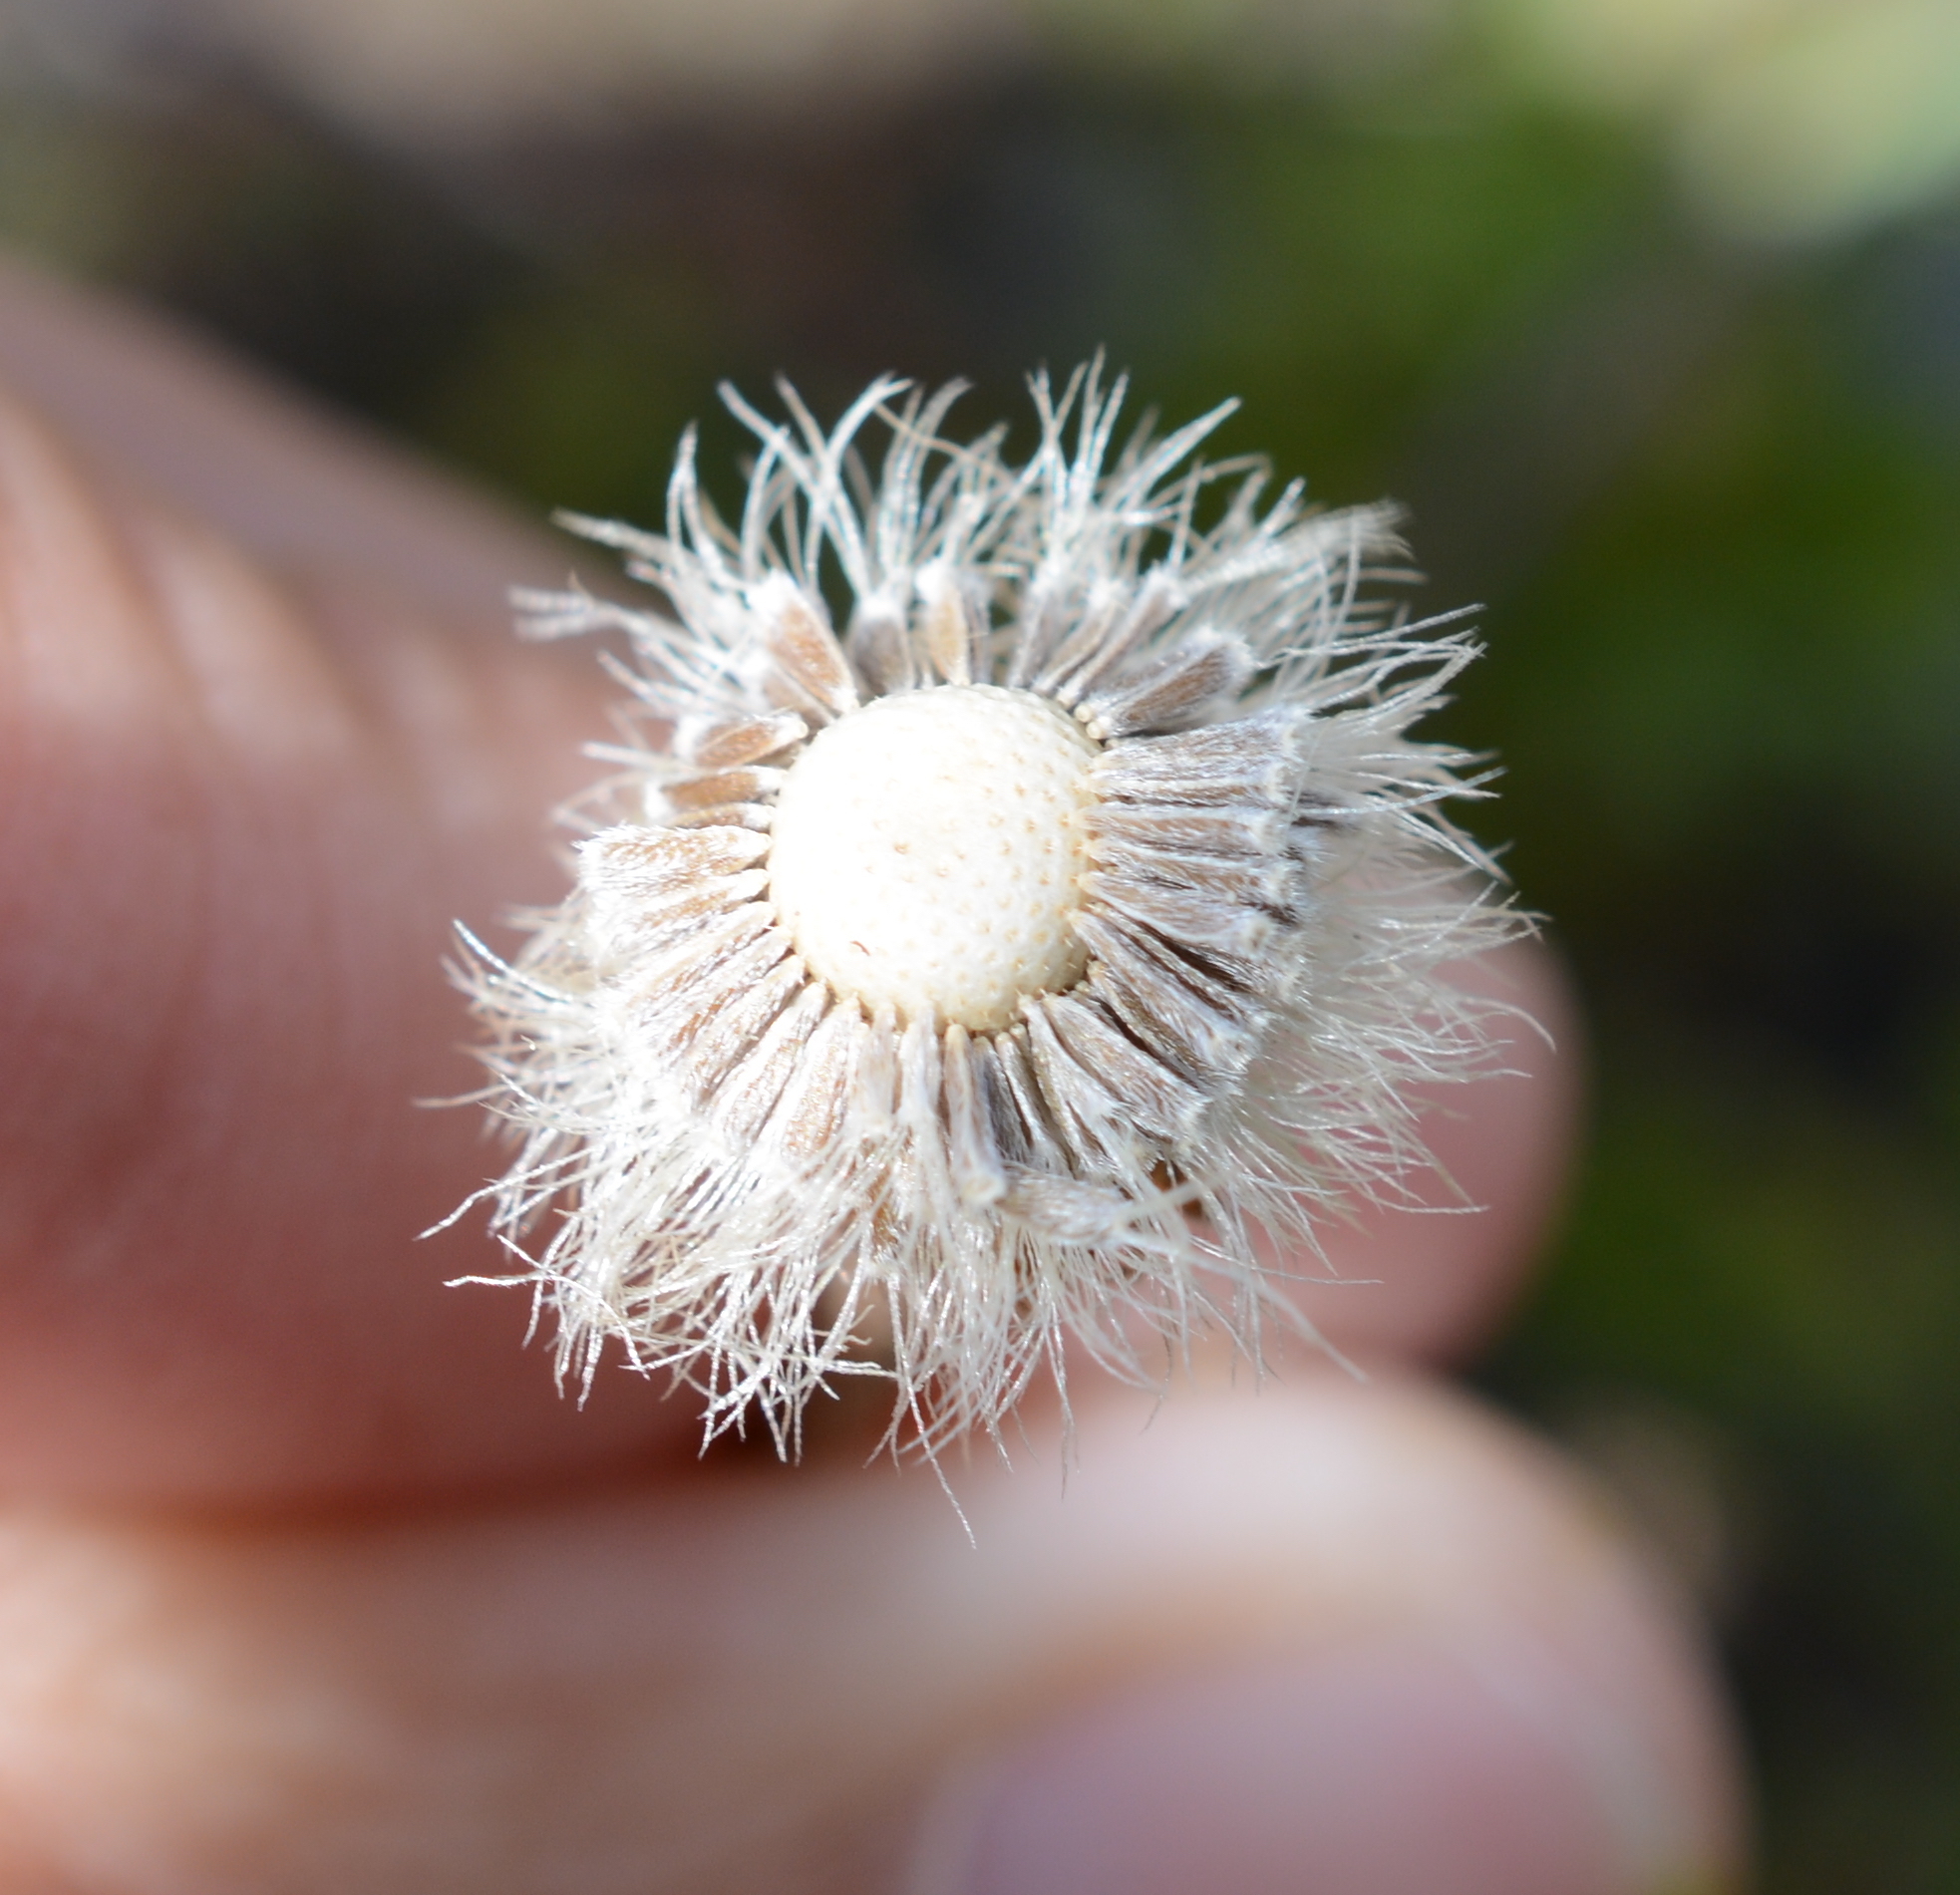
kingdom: Plantae
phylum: Tracheophyta
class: Magnoliopsida
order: Asterales
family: Asteraceae
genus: Erigeron
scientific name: Erigeron compositus
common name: Dwarf mountain fleabane
